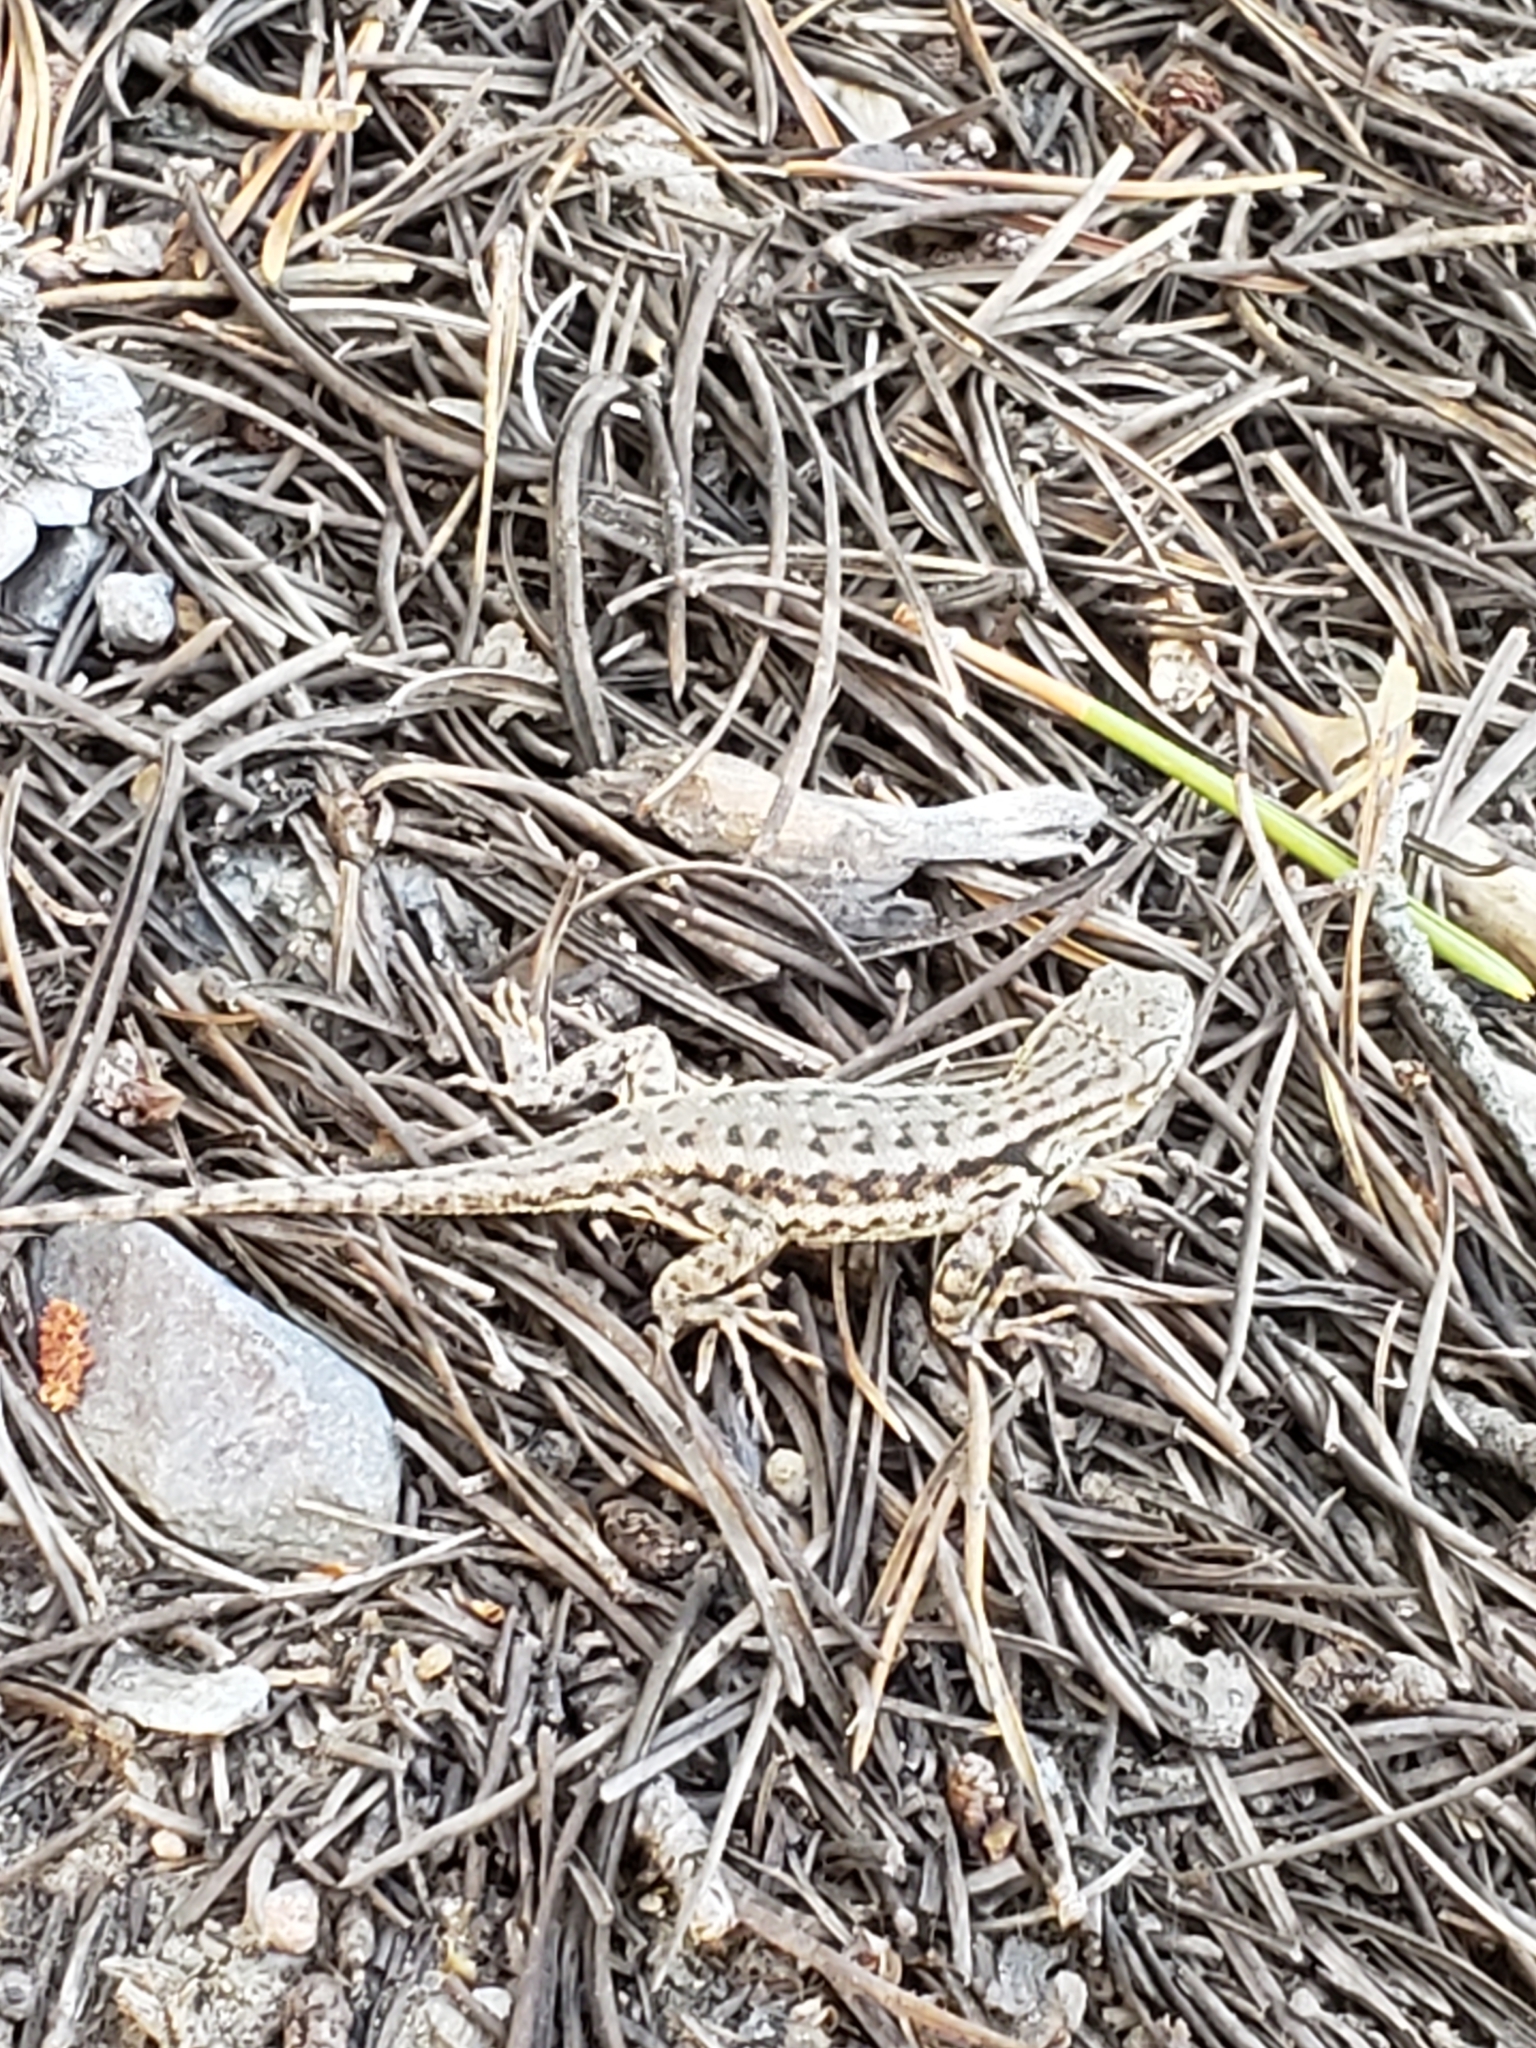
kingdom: Animalia
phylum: Chordata
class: Squamata
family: Phrynosomatidae
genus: Sceloporus
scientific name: Sceloporus graciosus
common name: Sagebrush lizard
